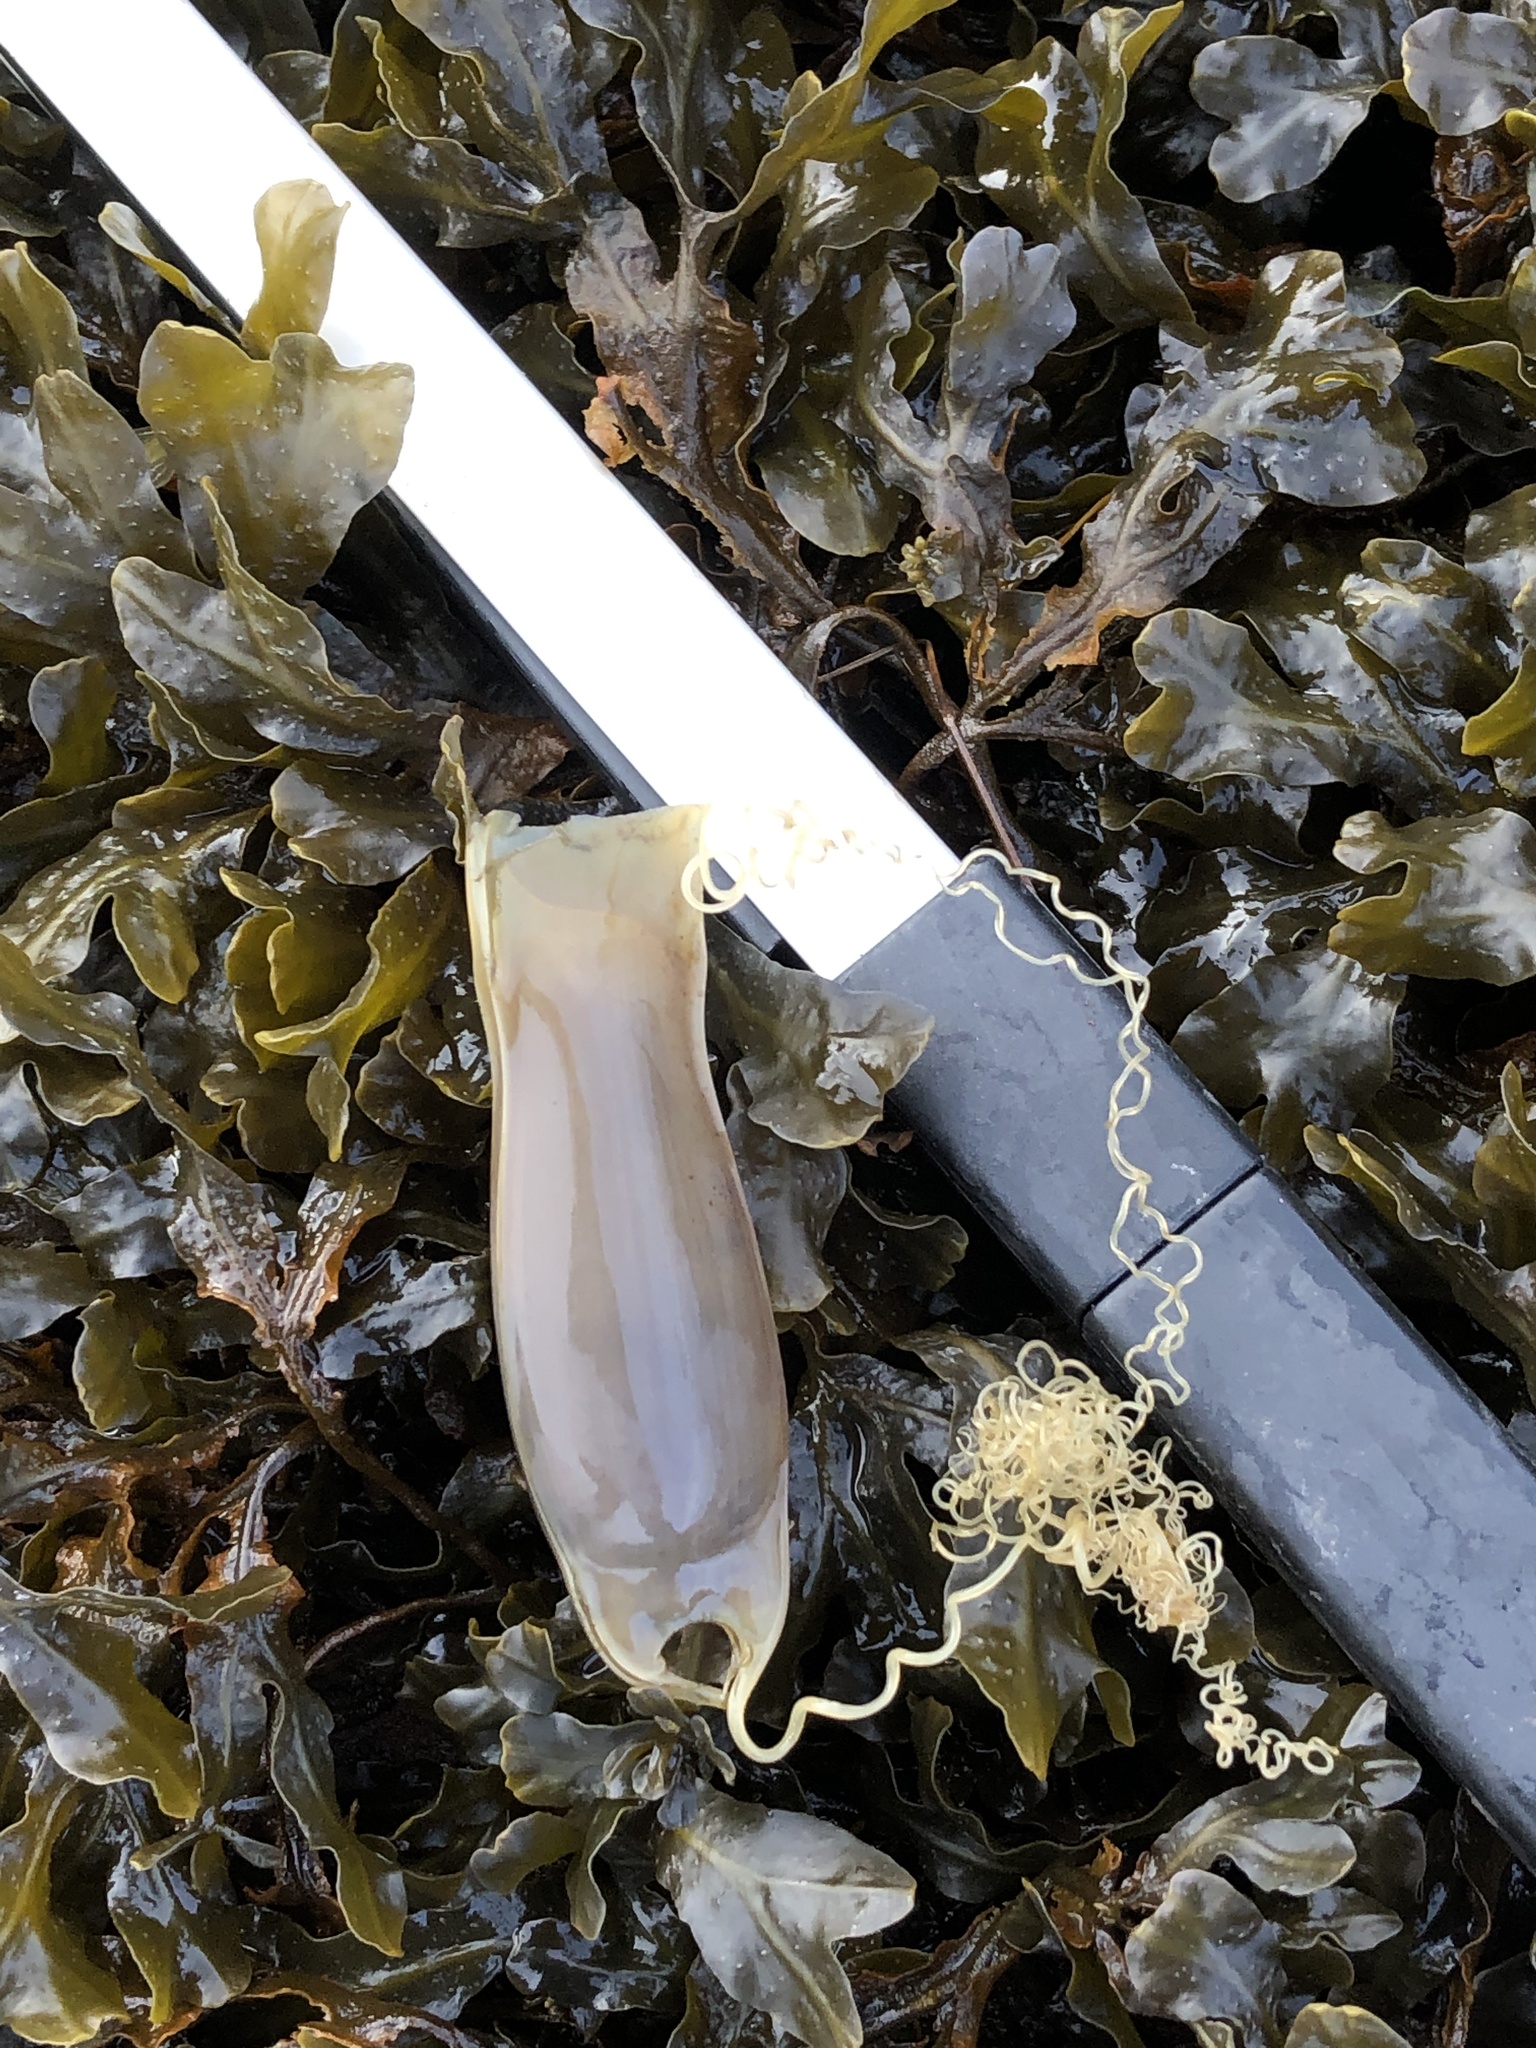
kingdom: Animalia
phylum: Chordata
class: Elasmobranchii
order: Carcharhiniformes
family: Scyliorhinidae
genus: Scyliorhinus
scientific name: Scyliorhinus canicula
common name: Lesser spotted dogfish
